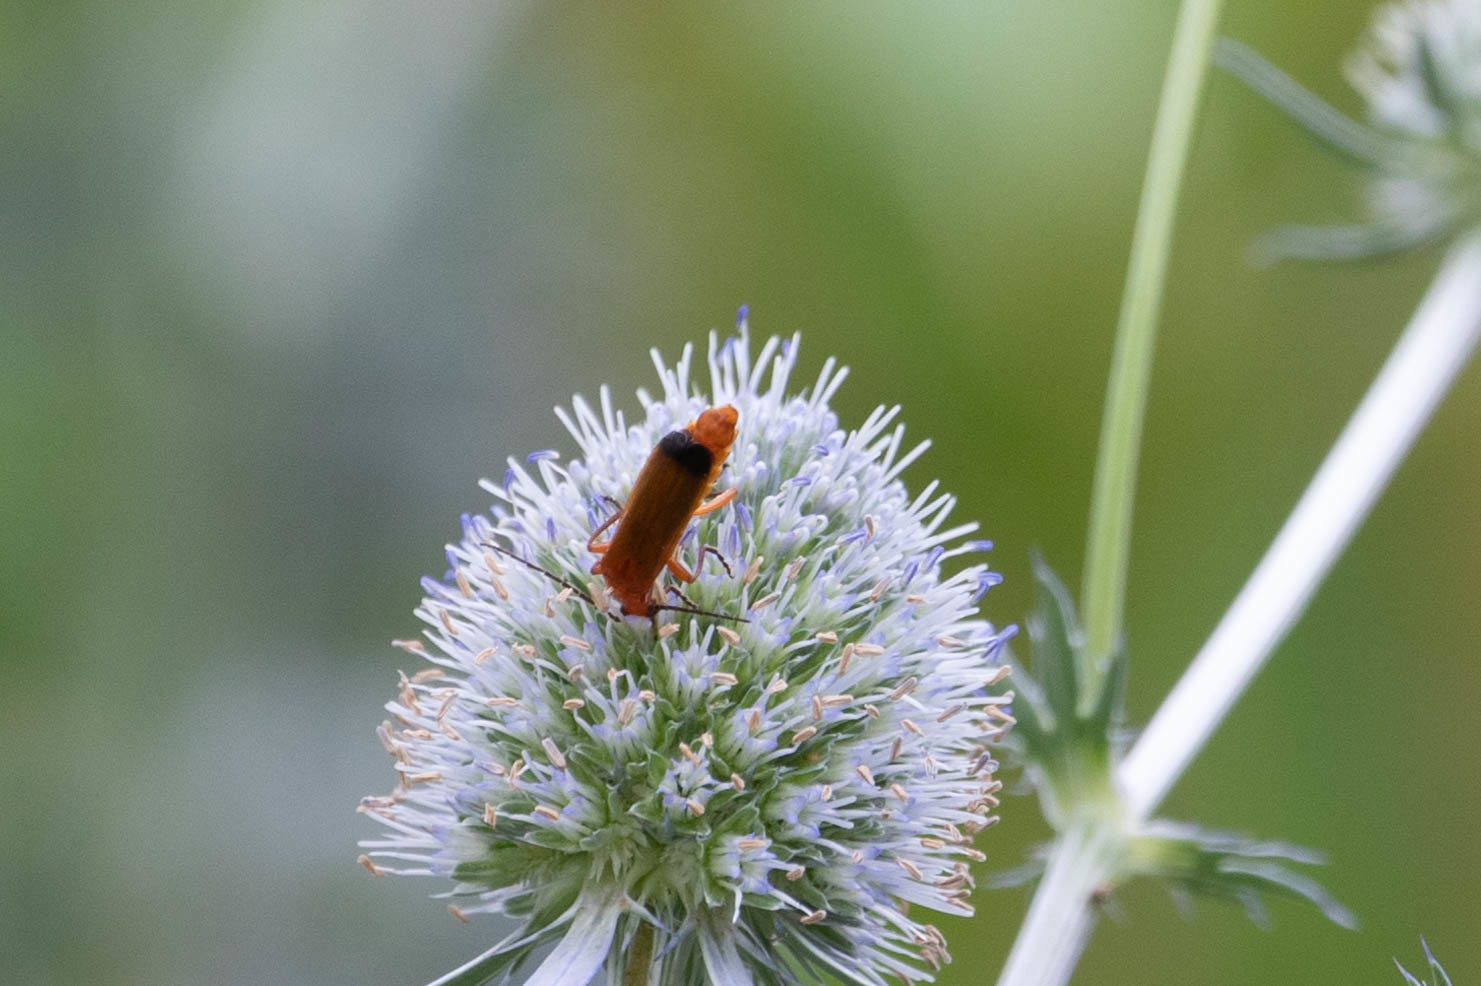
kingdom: Animalia
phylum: Arthropoda
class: Insecta
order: Coleoptera
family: Cantharidae
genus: Rhagonycha
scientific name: Rhagonycha fulva
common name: Common red soldier beetle
